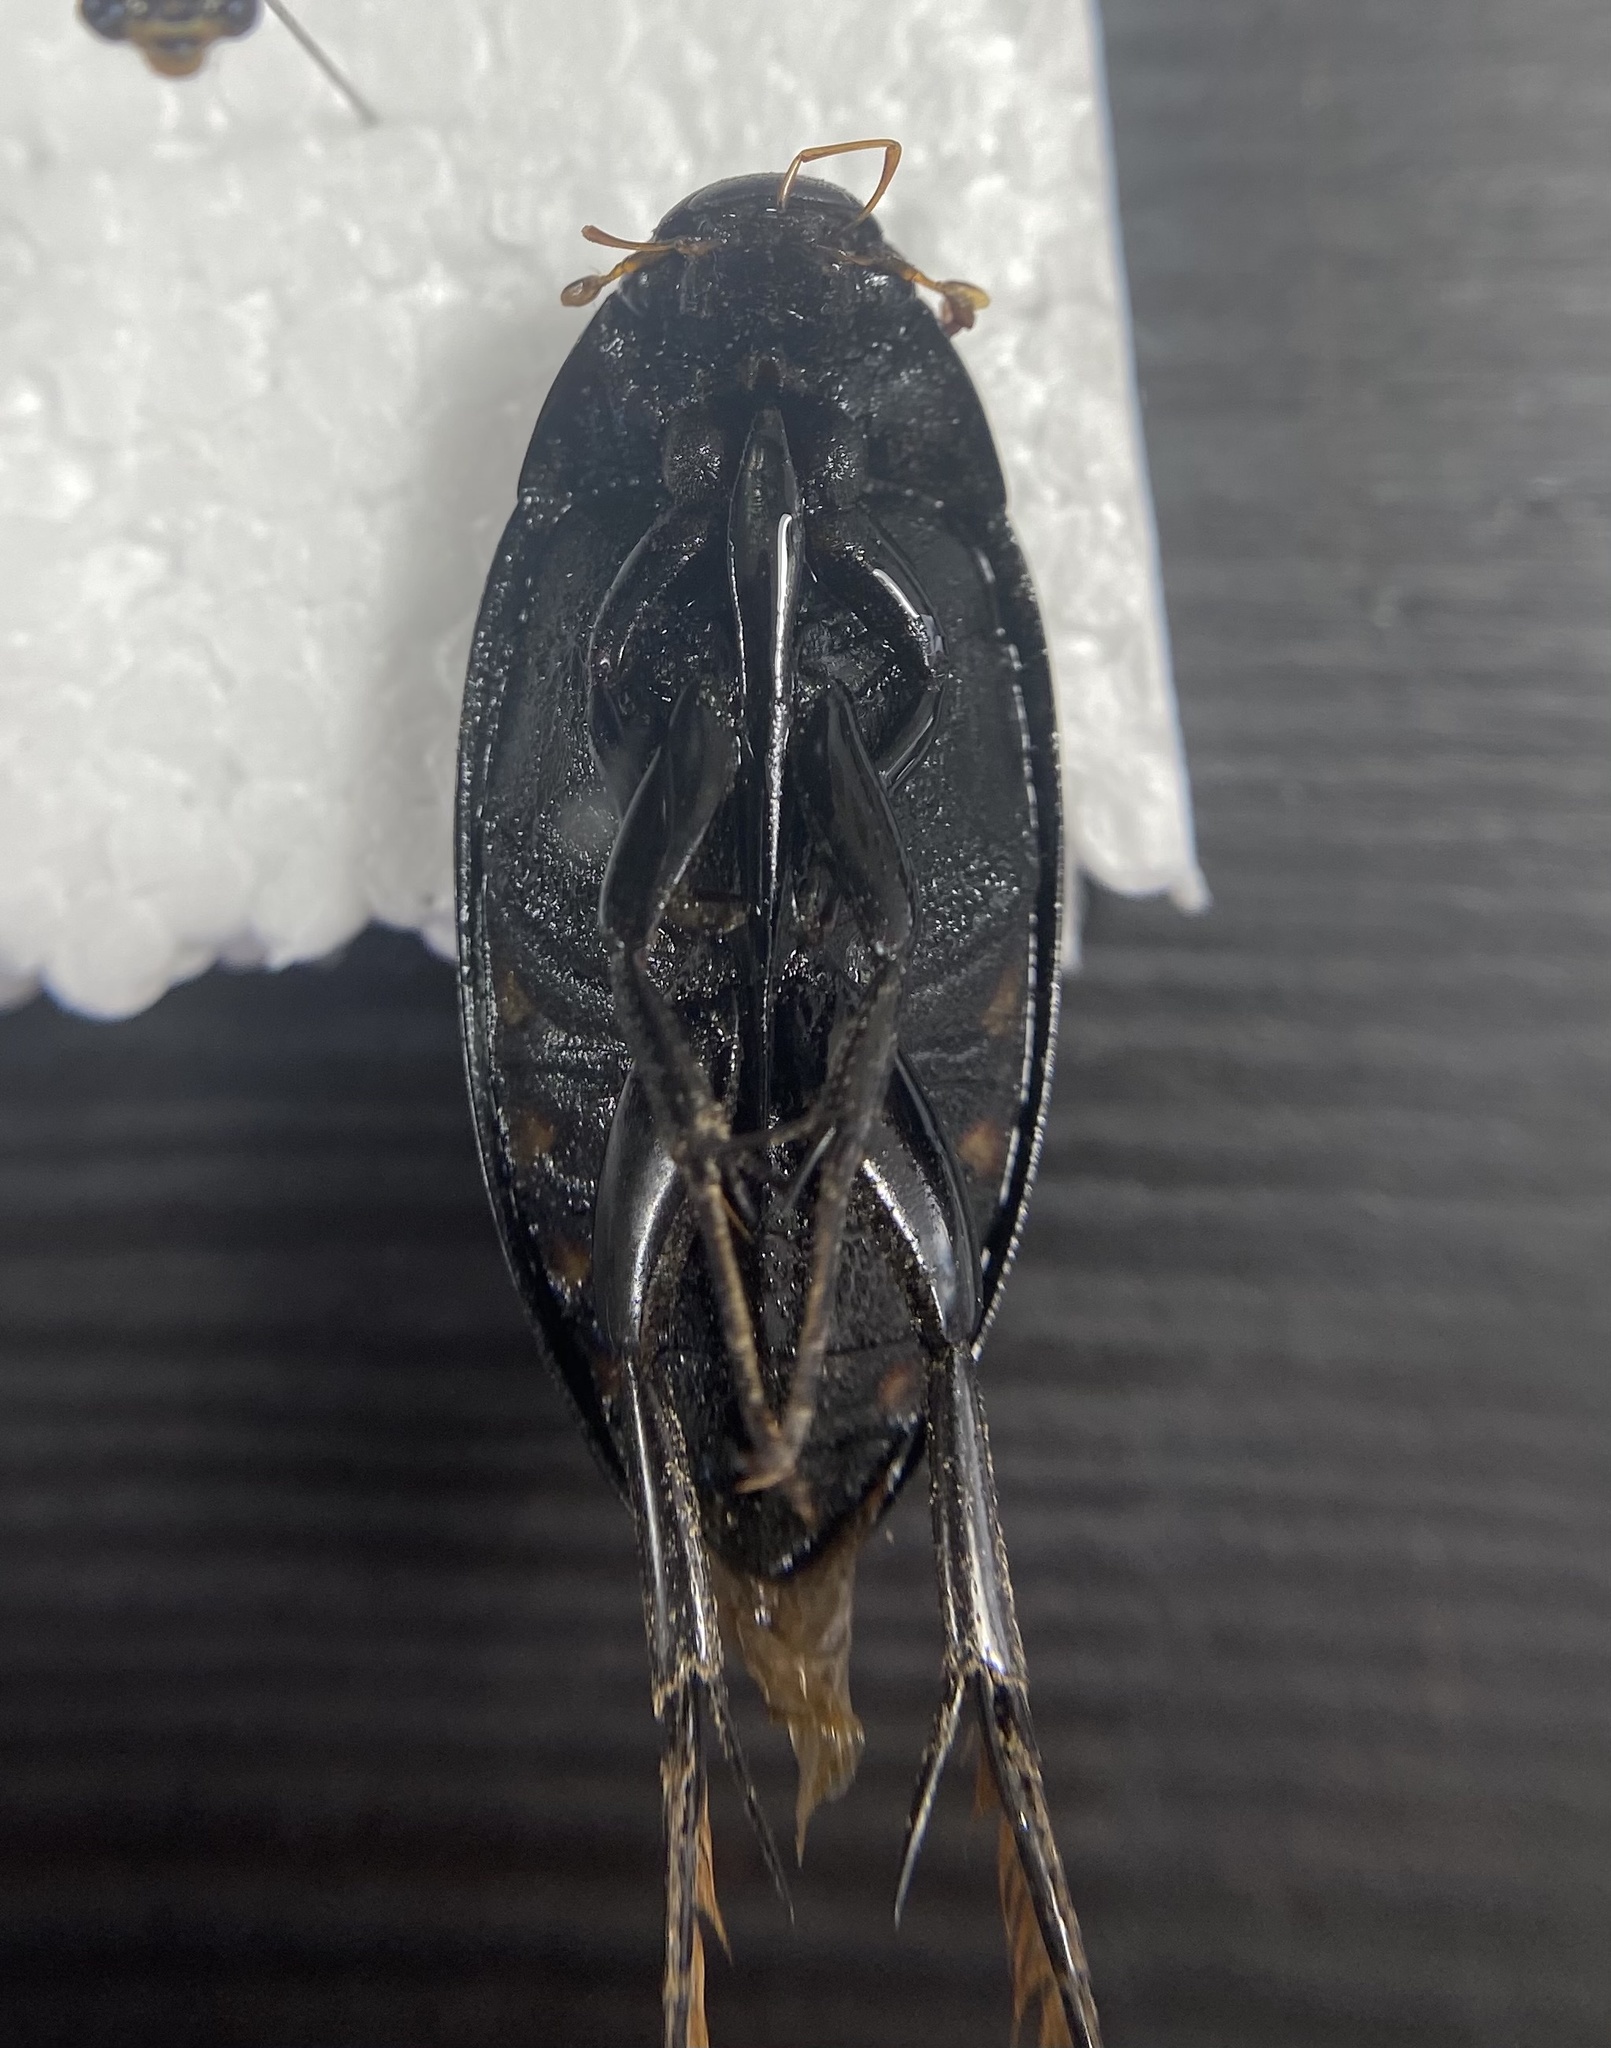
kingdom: Animalia
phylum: Arthropoda
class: Insecta
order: Coleoptera
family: Hydrophilidae
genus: Hydrophilus
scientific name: Hydrophilus triangularis
